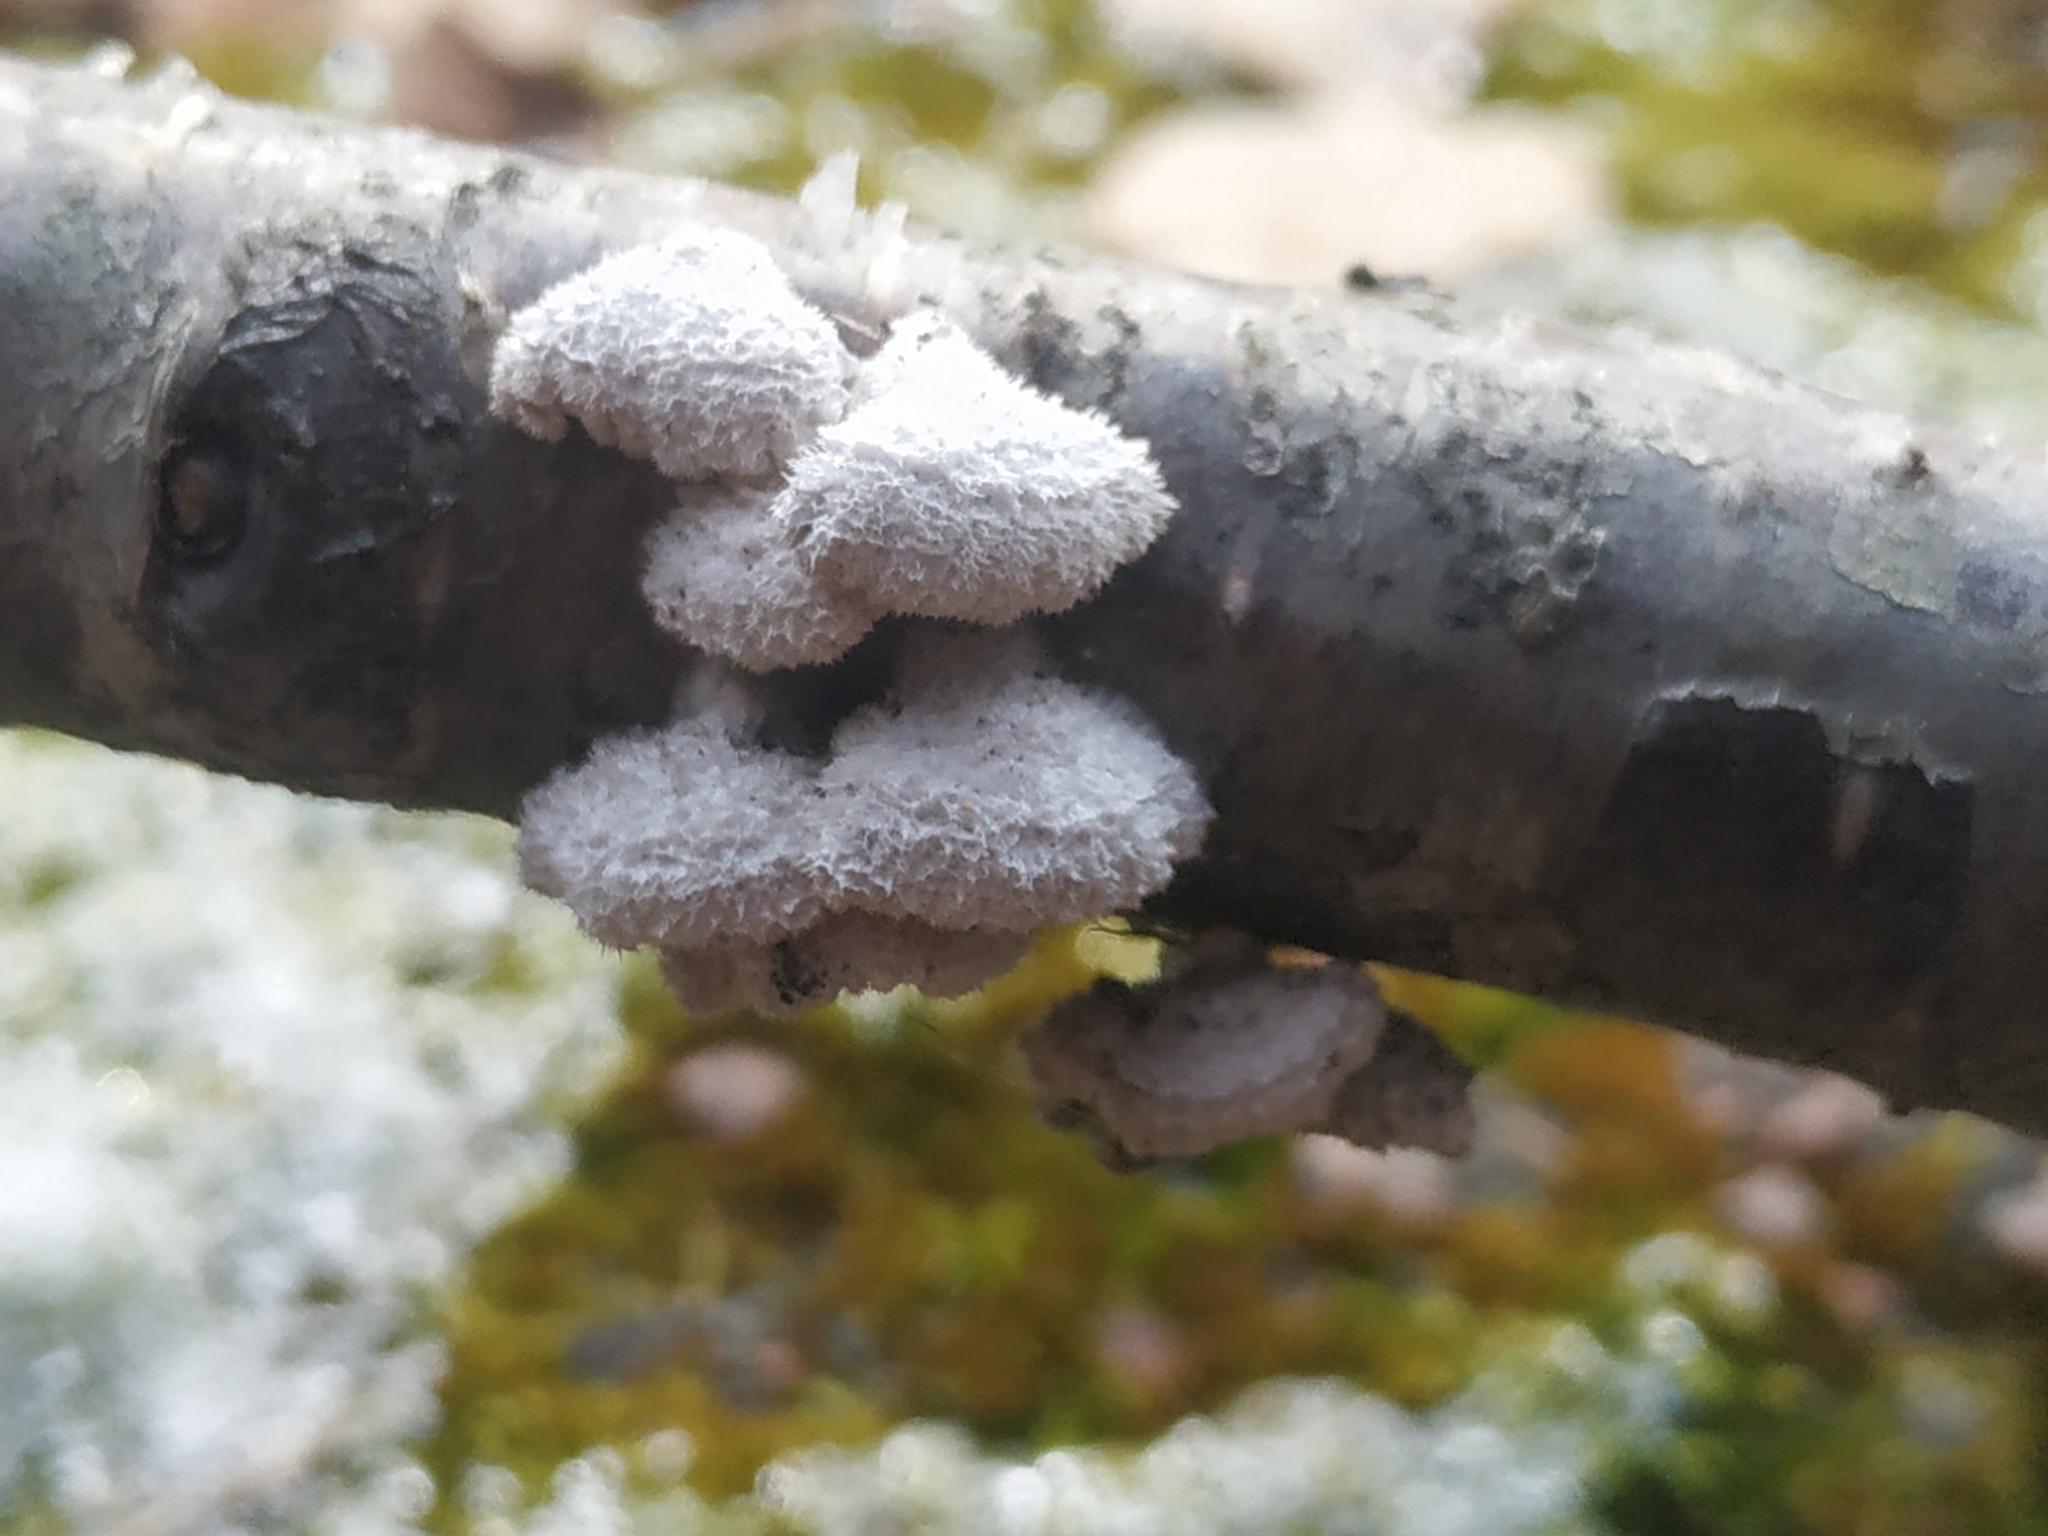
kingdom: Fungi
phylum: Basidiomycota
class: Agaricomycetes
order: Agaricales
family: Schizophyllaceae
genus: Schizophyllum
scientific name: Schizophyllum commune
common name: Common porecrust
